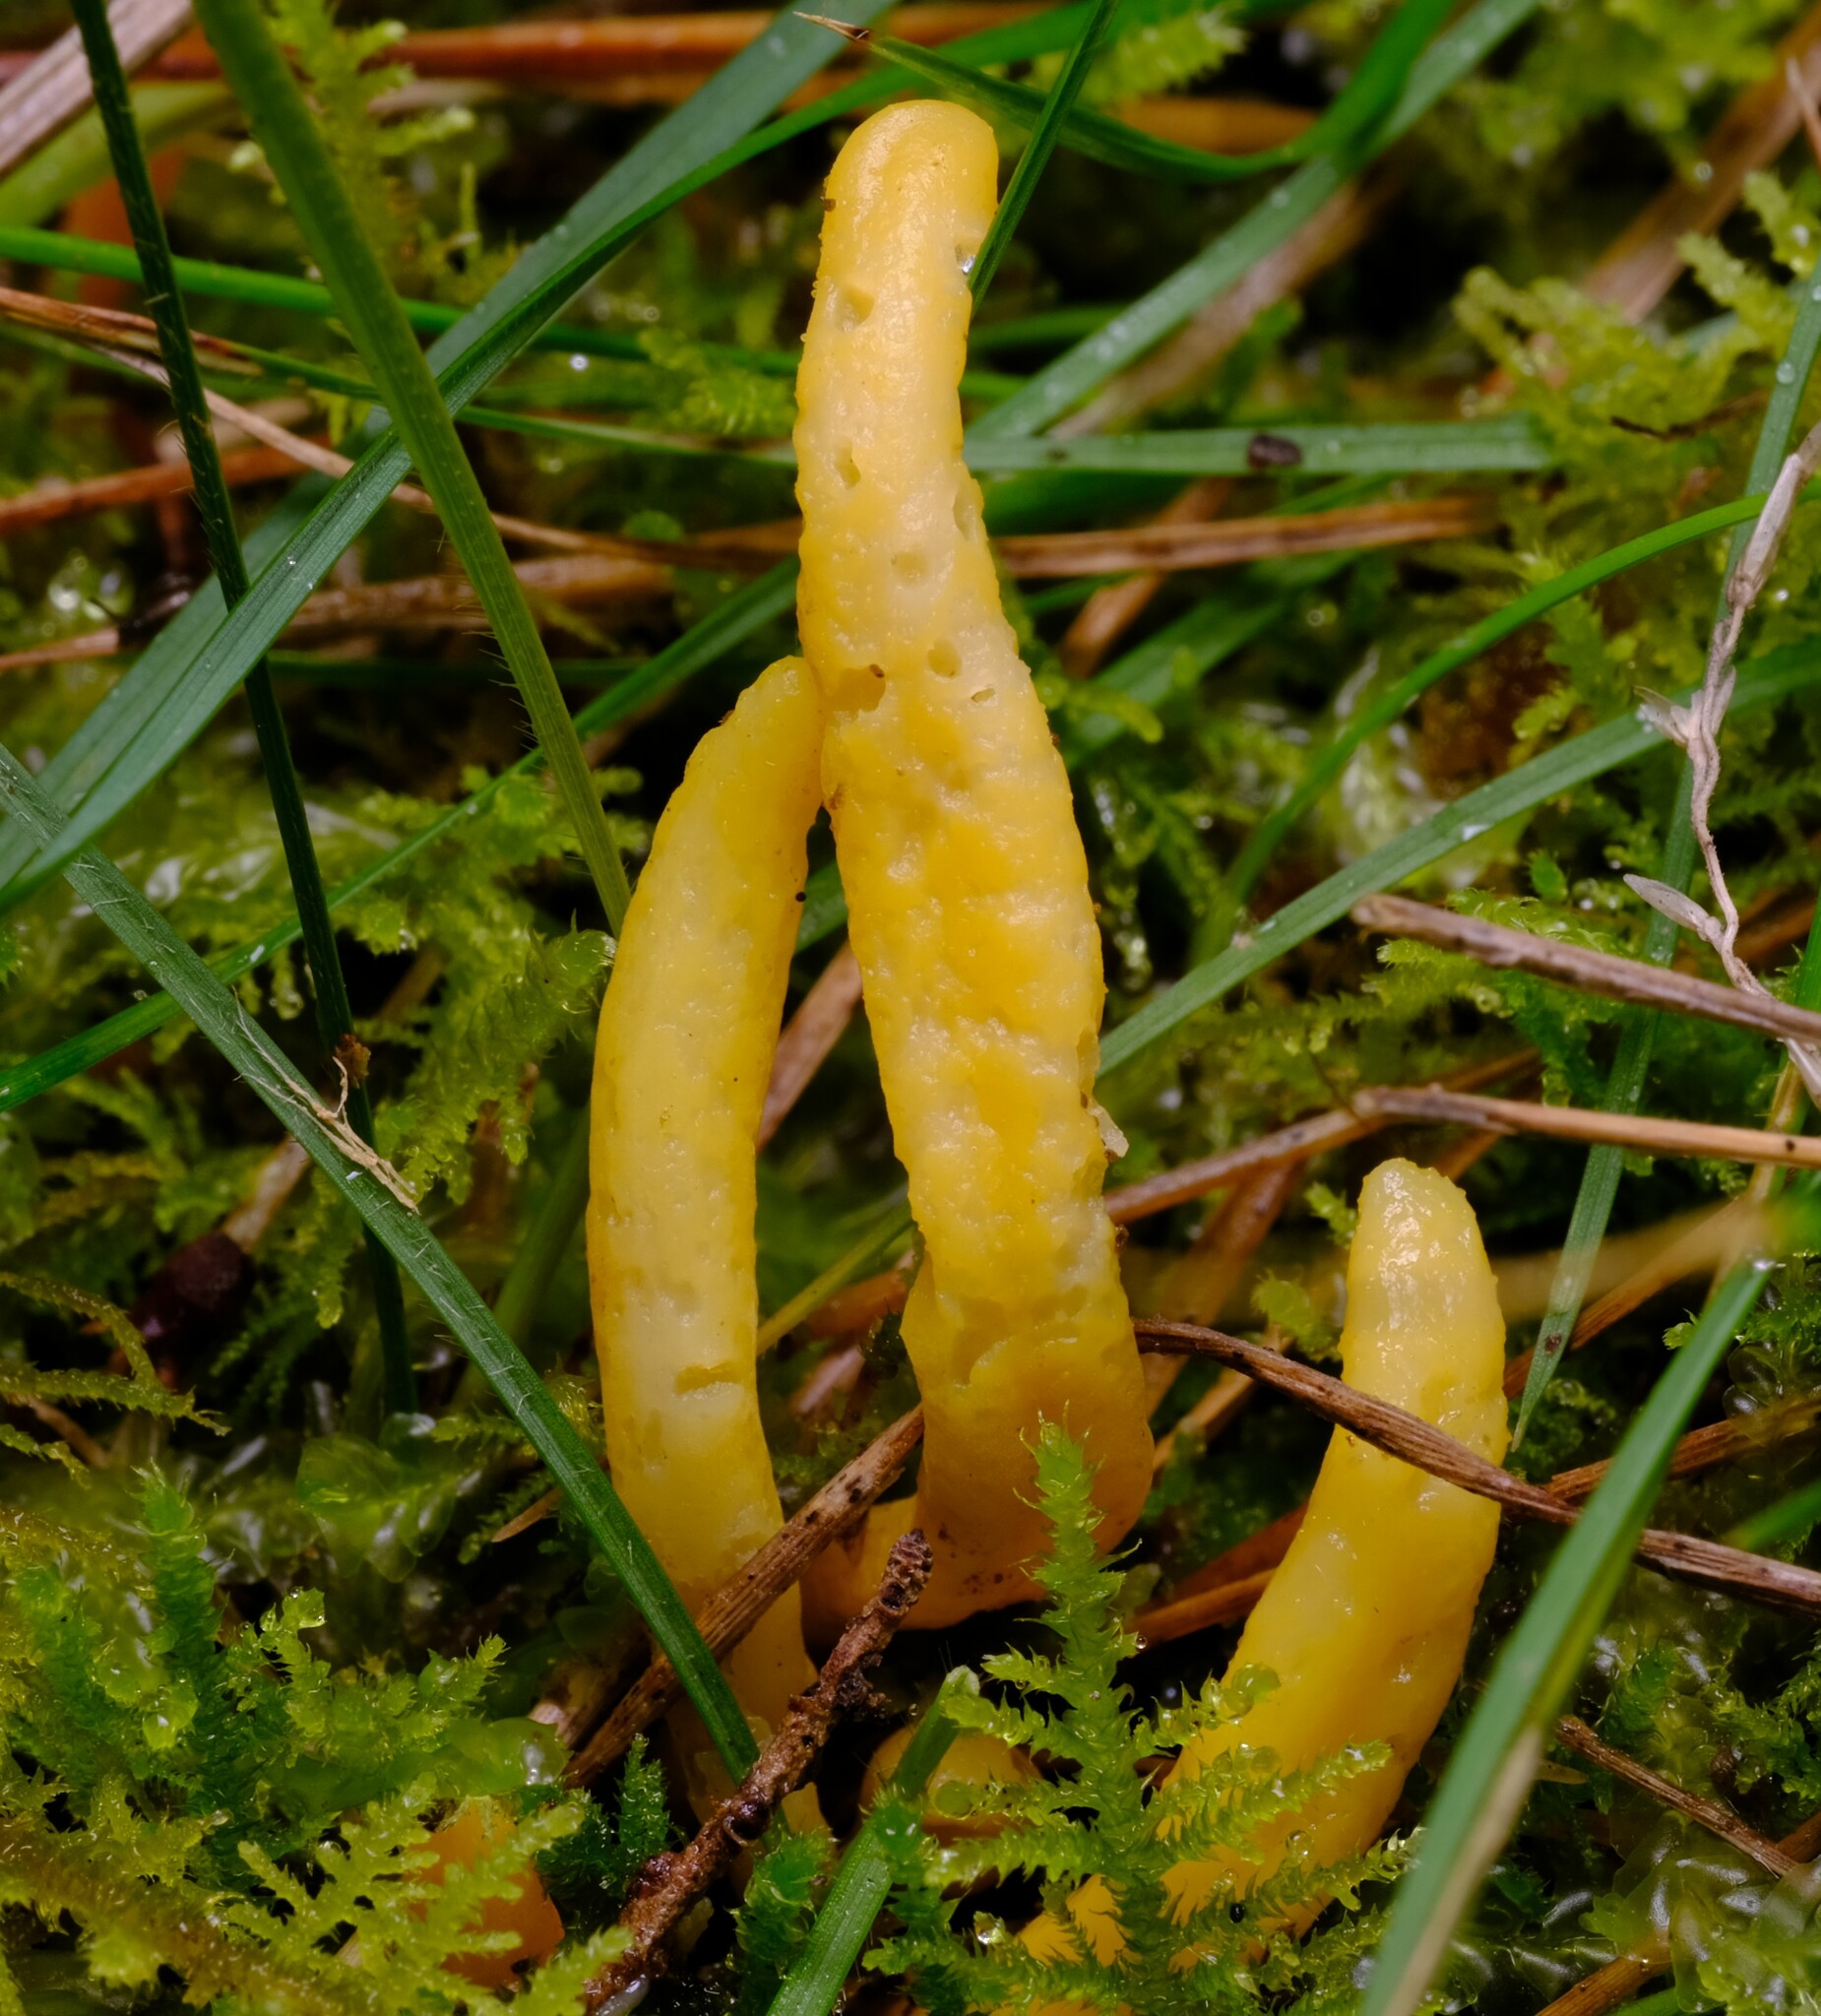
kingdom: Fungi
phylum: Basidiomycota
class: Agaricomycetes
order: Agaricales
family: Clavariaceae
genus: Clavulinopsis
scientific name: Clavulinopsis amoena
